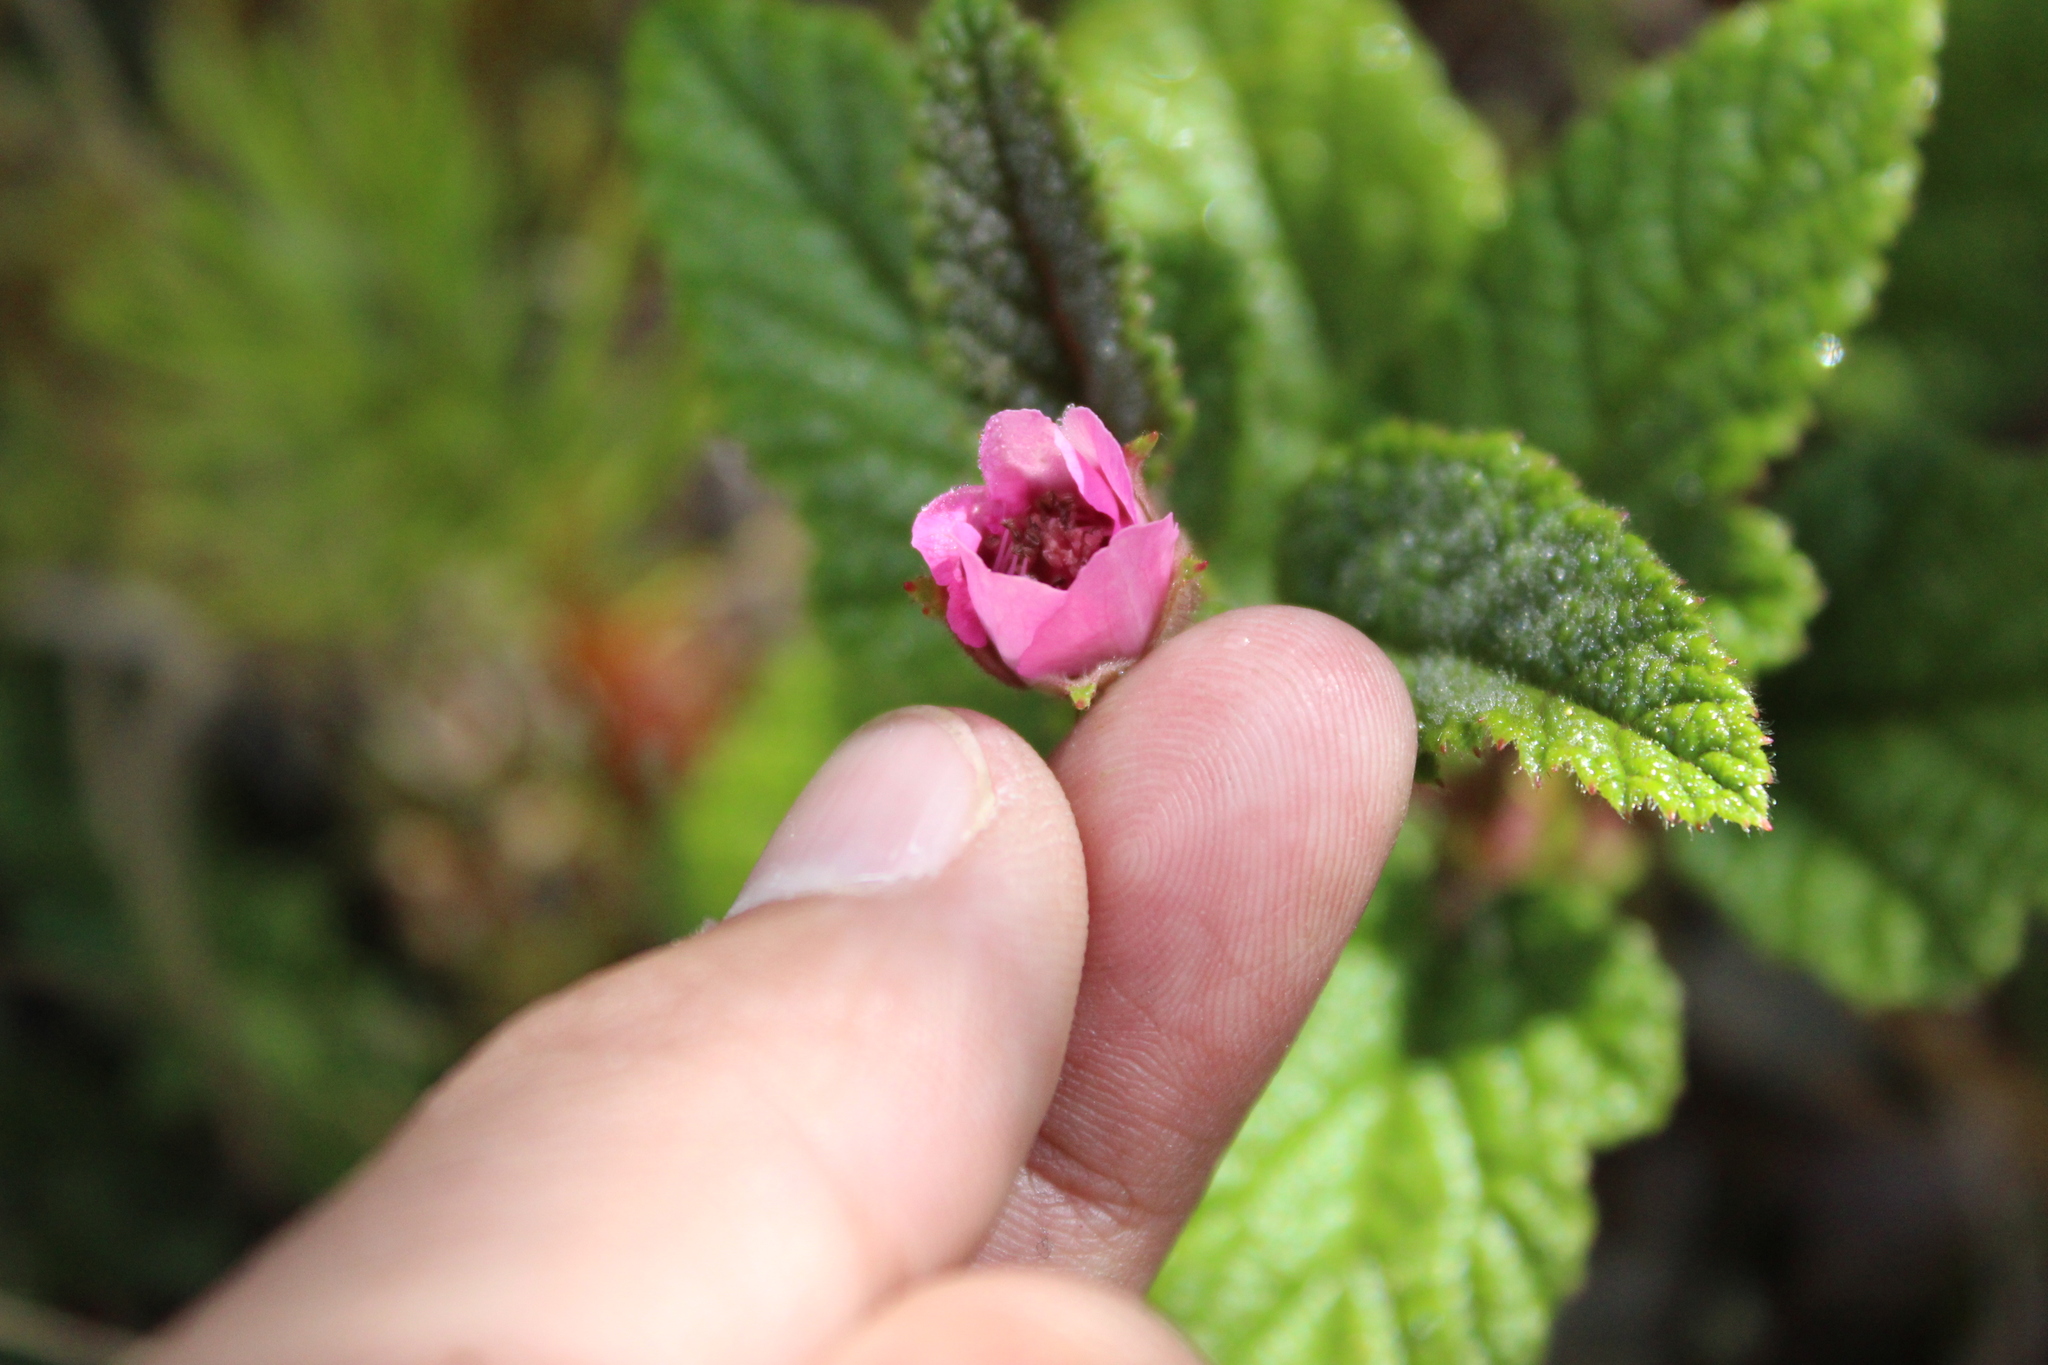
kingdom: Plantae
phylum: Tracheophyta
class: Magnoliopsida
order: Rosales
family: Rosaceae
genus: Rubus
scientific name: Rubus acanthophyllos
